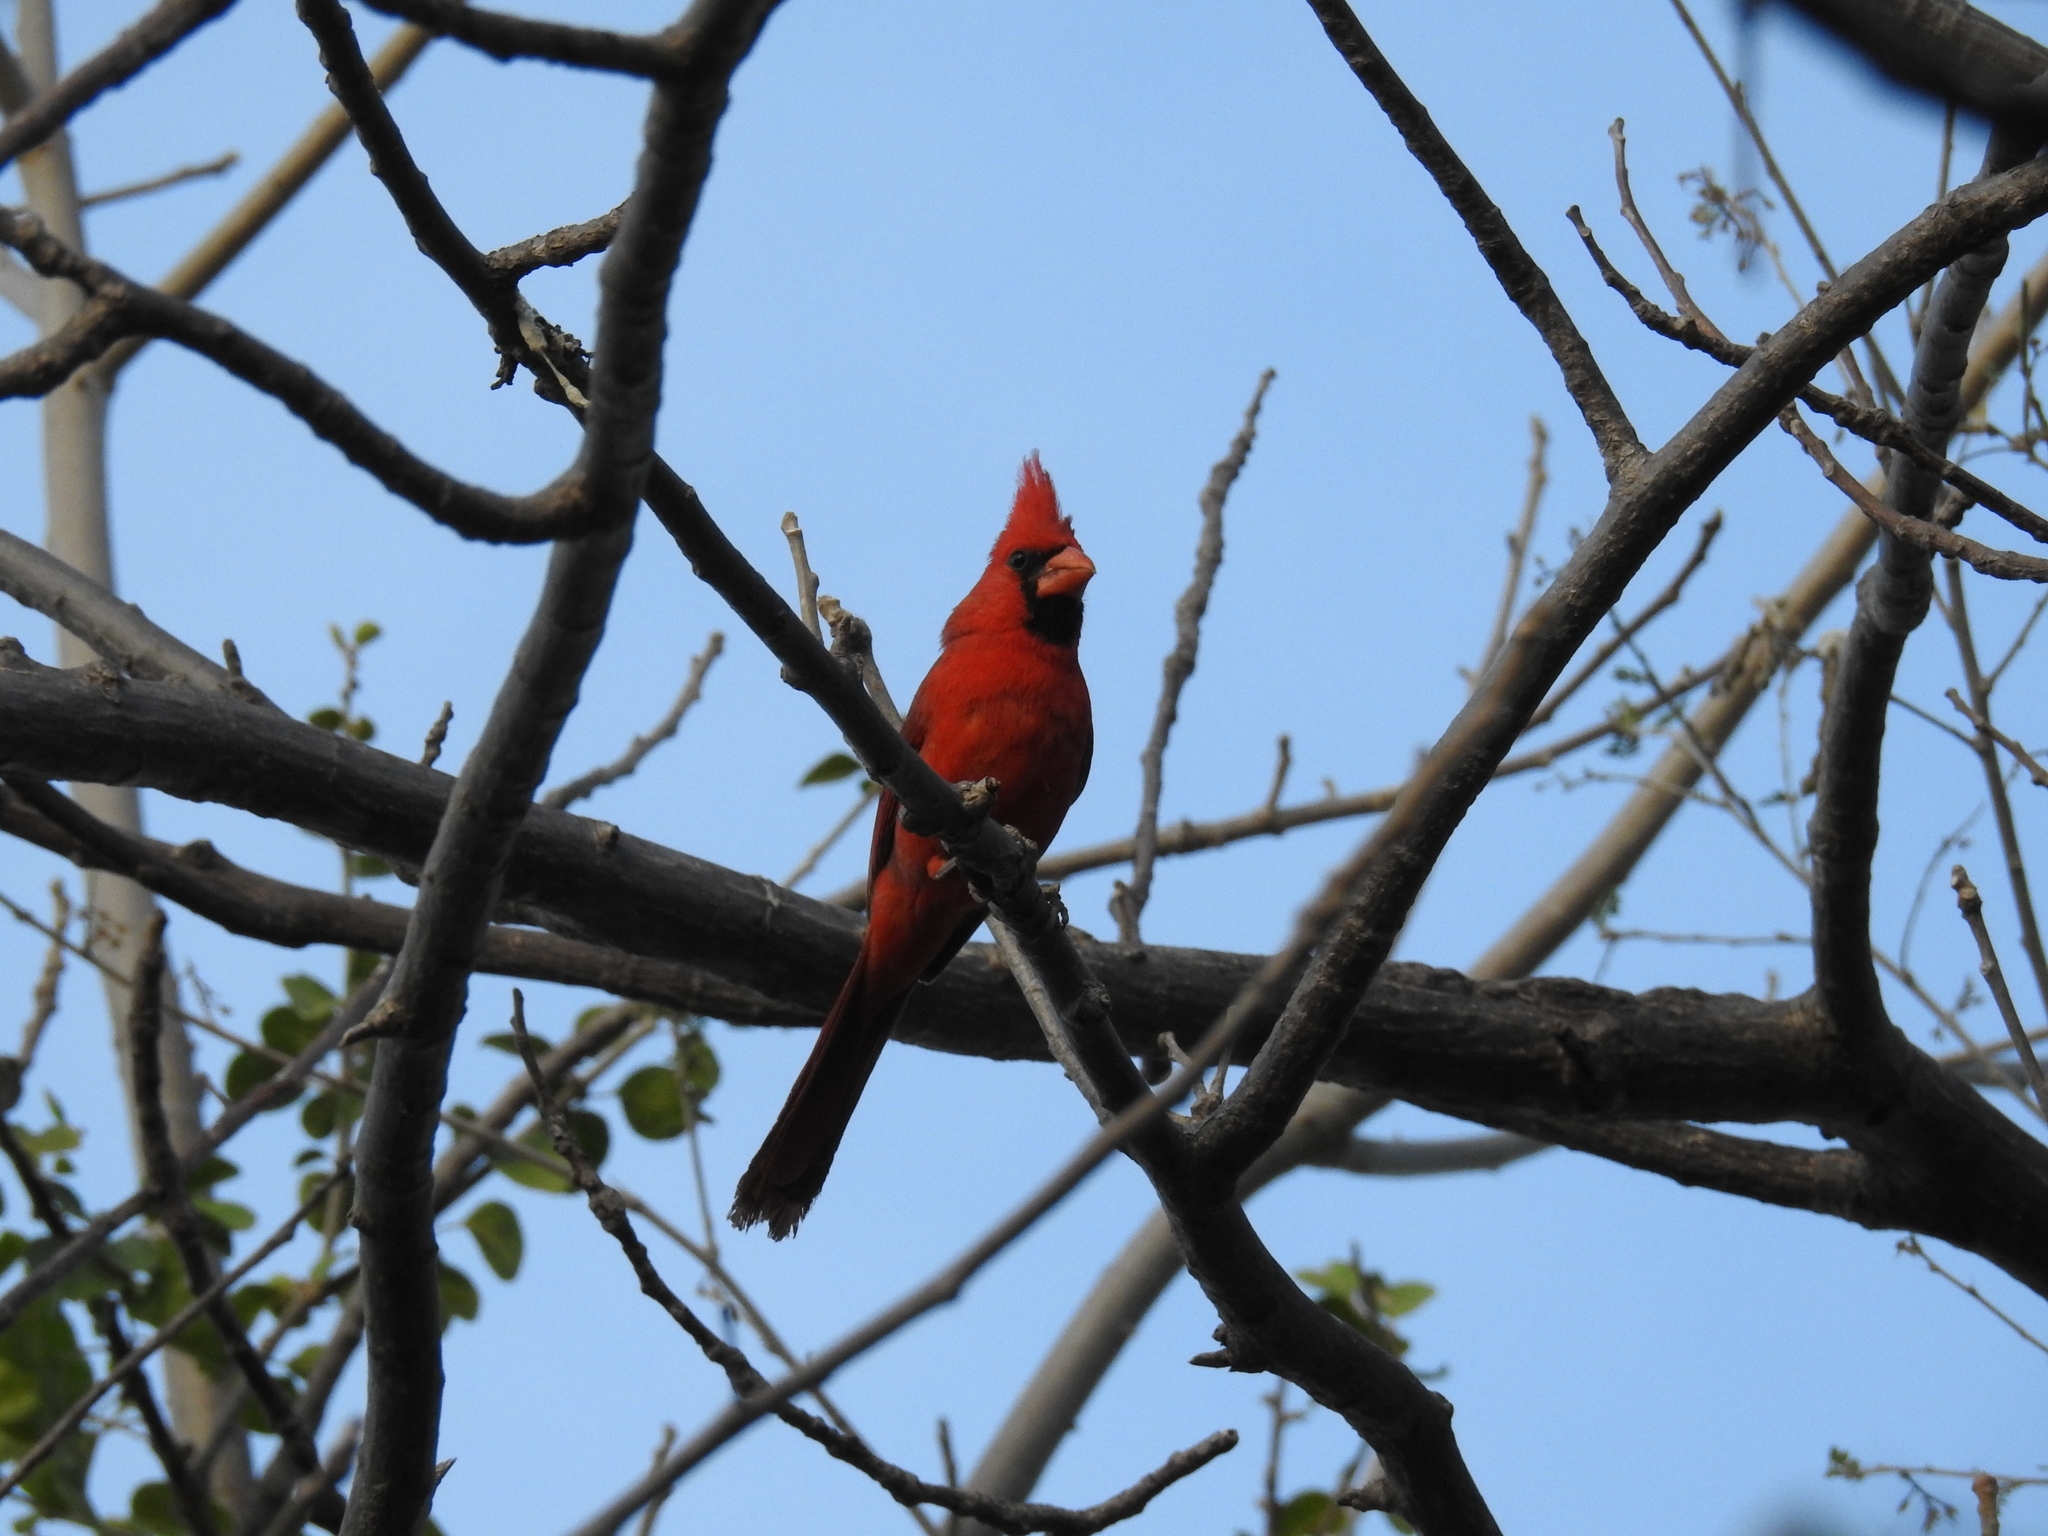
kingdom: Animalia
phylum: Chordata
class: Aves
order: Passeriformes
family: Cardinalidae
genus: Cardinalis
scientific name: Cardinalis cardinalis
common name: Northern cardinal
